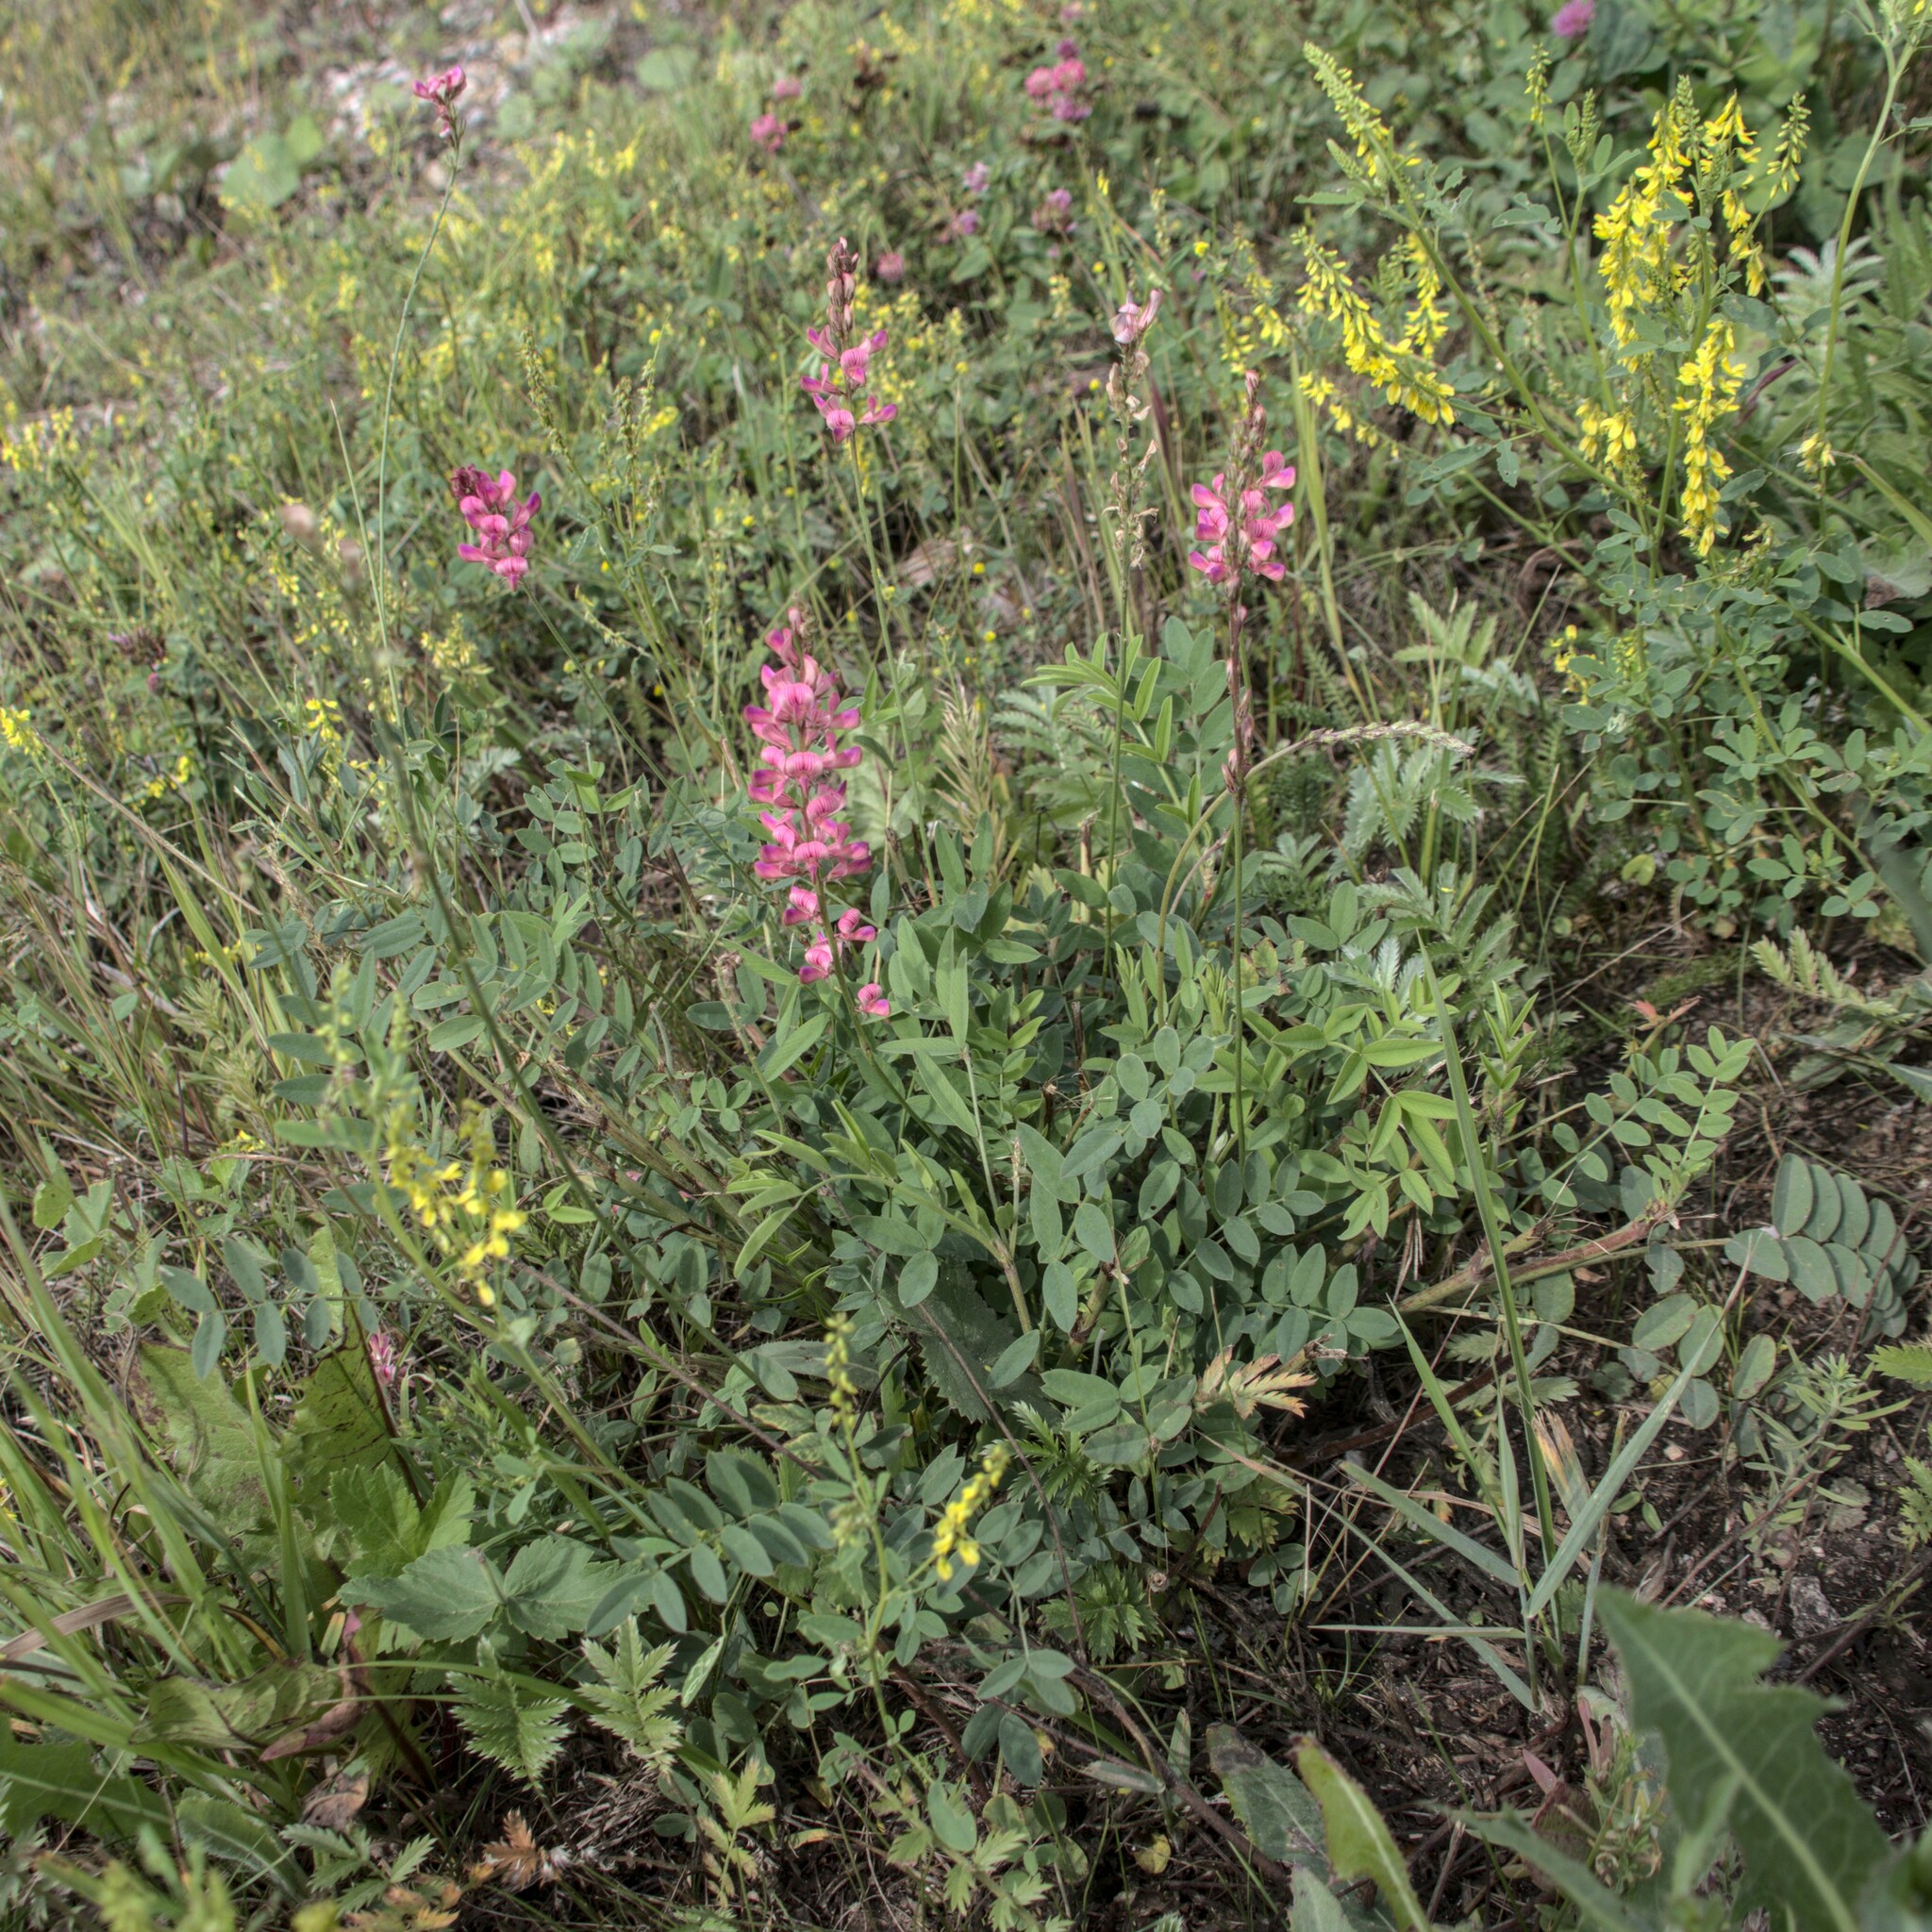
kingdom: Plantae
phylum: Tracheophyta
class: Magnoliopsida
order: Fabales
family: Fabaceae
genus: Onobrychis
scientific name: Onobrychis viciifolia
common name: Sainfoin
